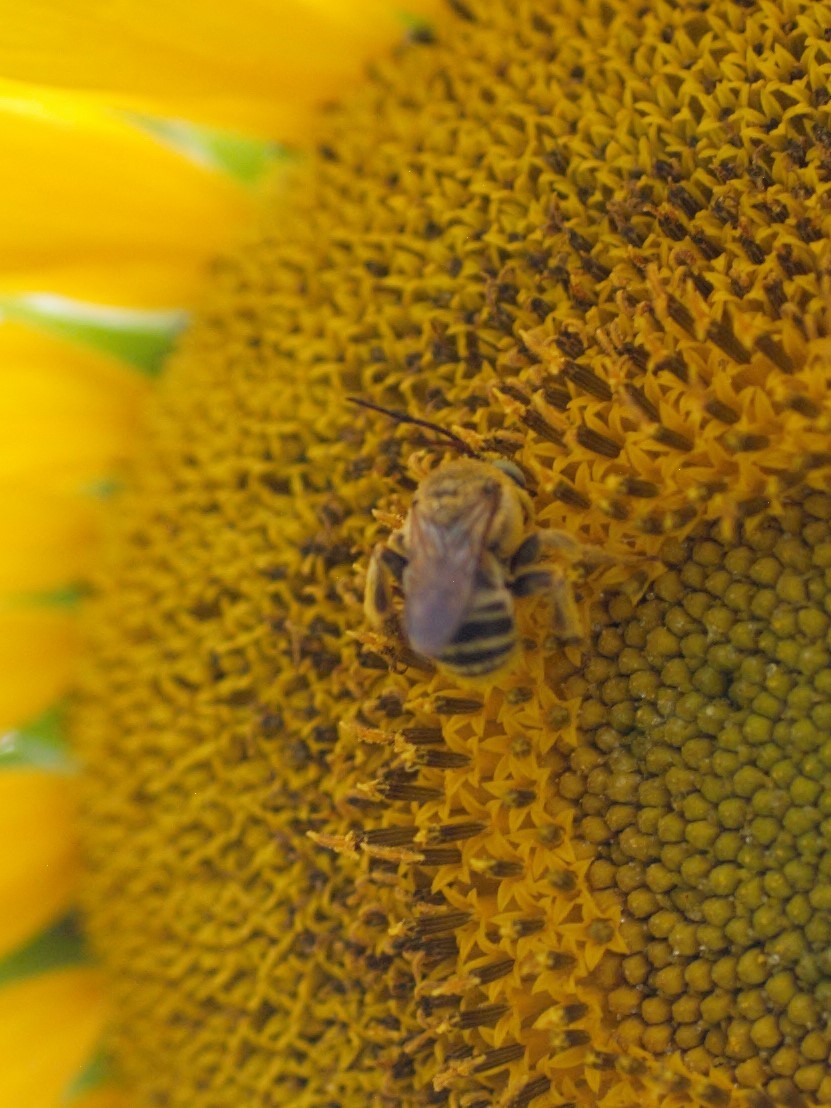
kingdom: Animalia
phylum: Arthropoda
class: Insecta
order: Hymenoptera
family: Apidae
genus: Svastra
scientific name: Svastra obliqua
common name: Oblique longhorn
